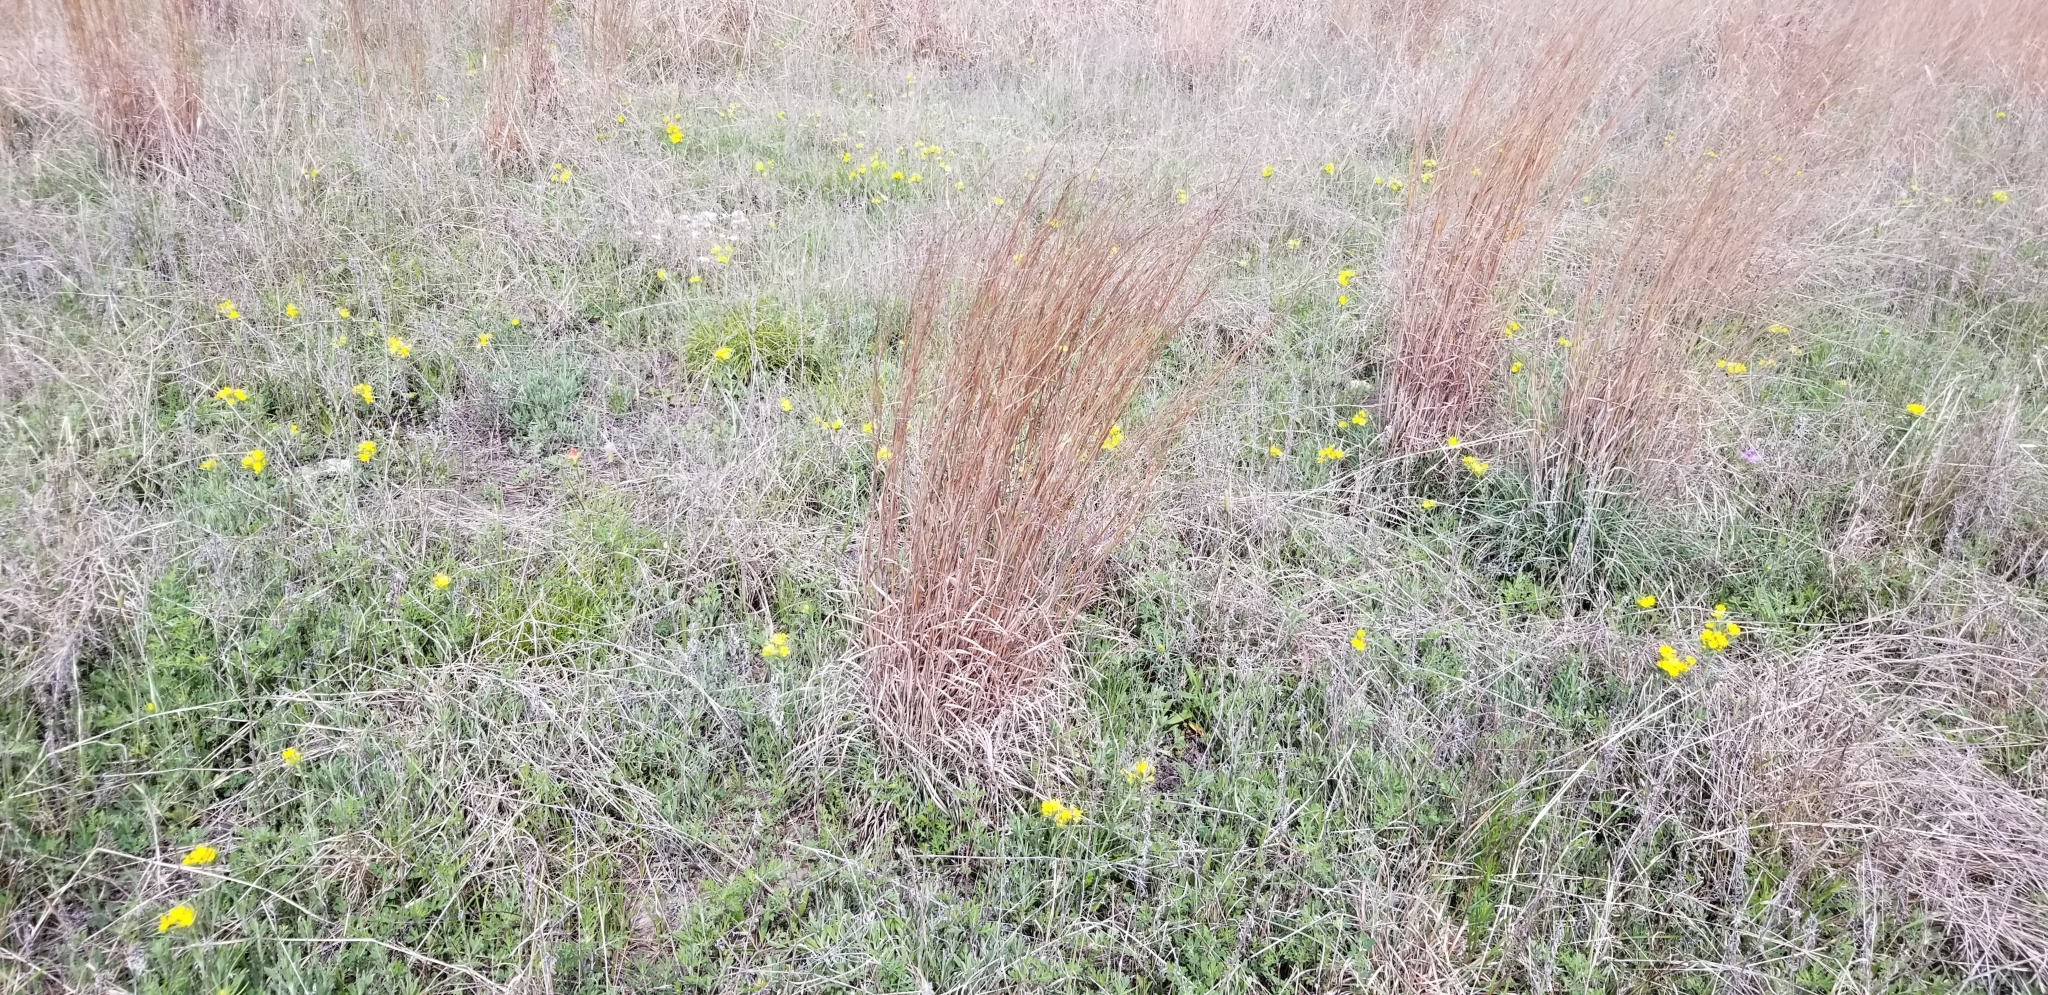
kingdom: Plantae
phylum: Tracheophyta
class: Magnoliopsida
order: Boraginales
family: Boraginaceae
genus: Lithospermum
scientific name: Lithospermum incisum
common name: Fringed gromwell
